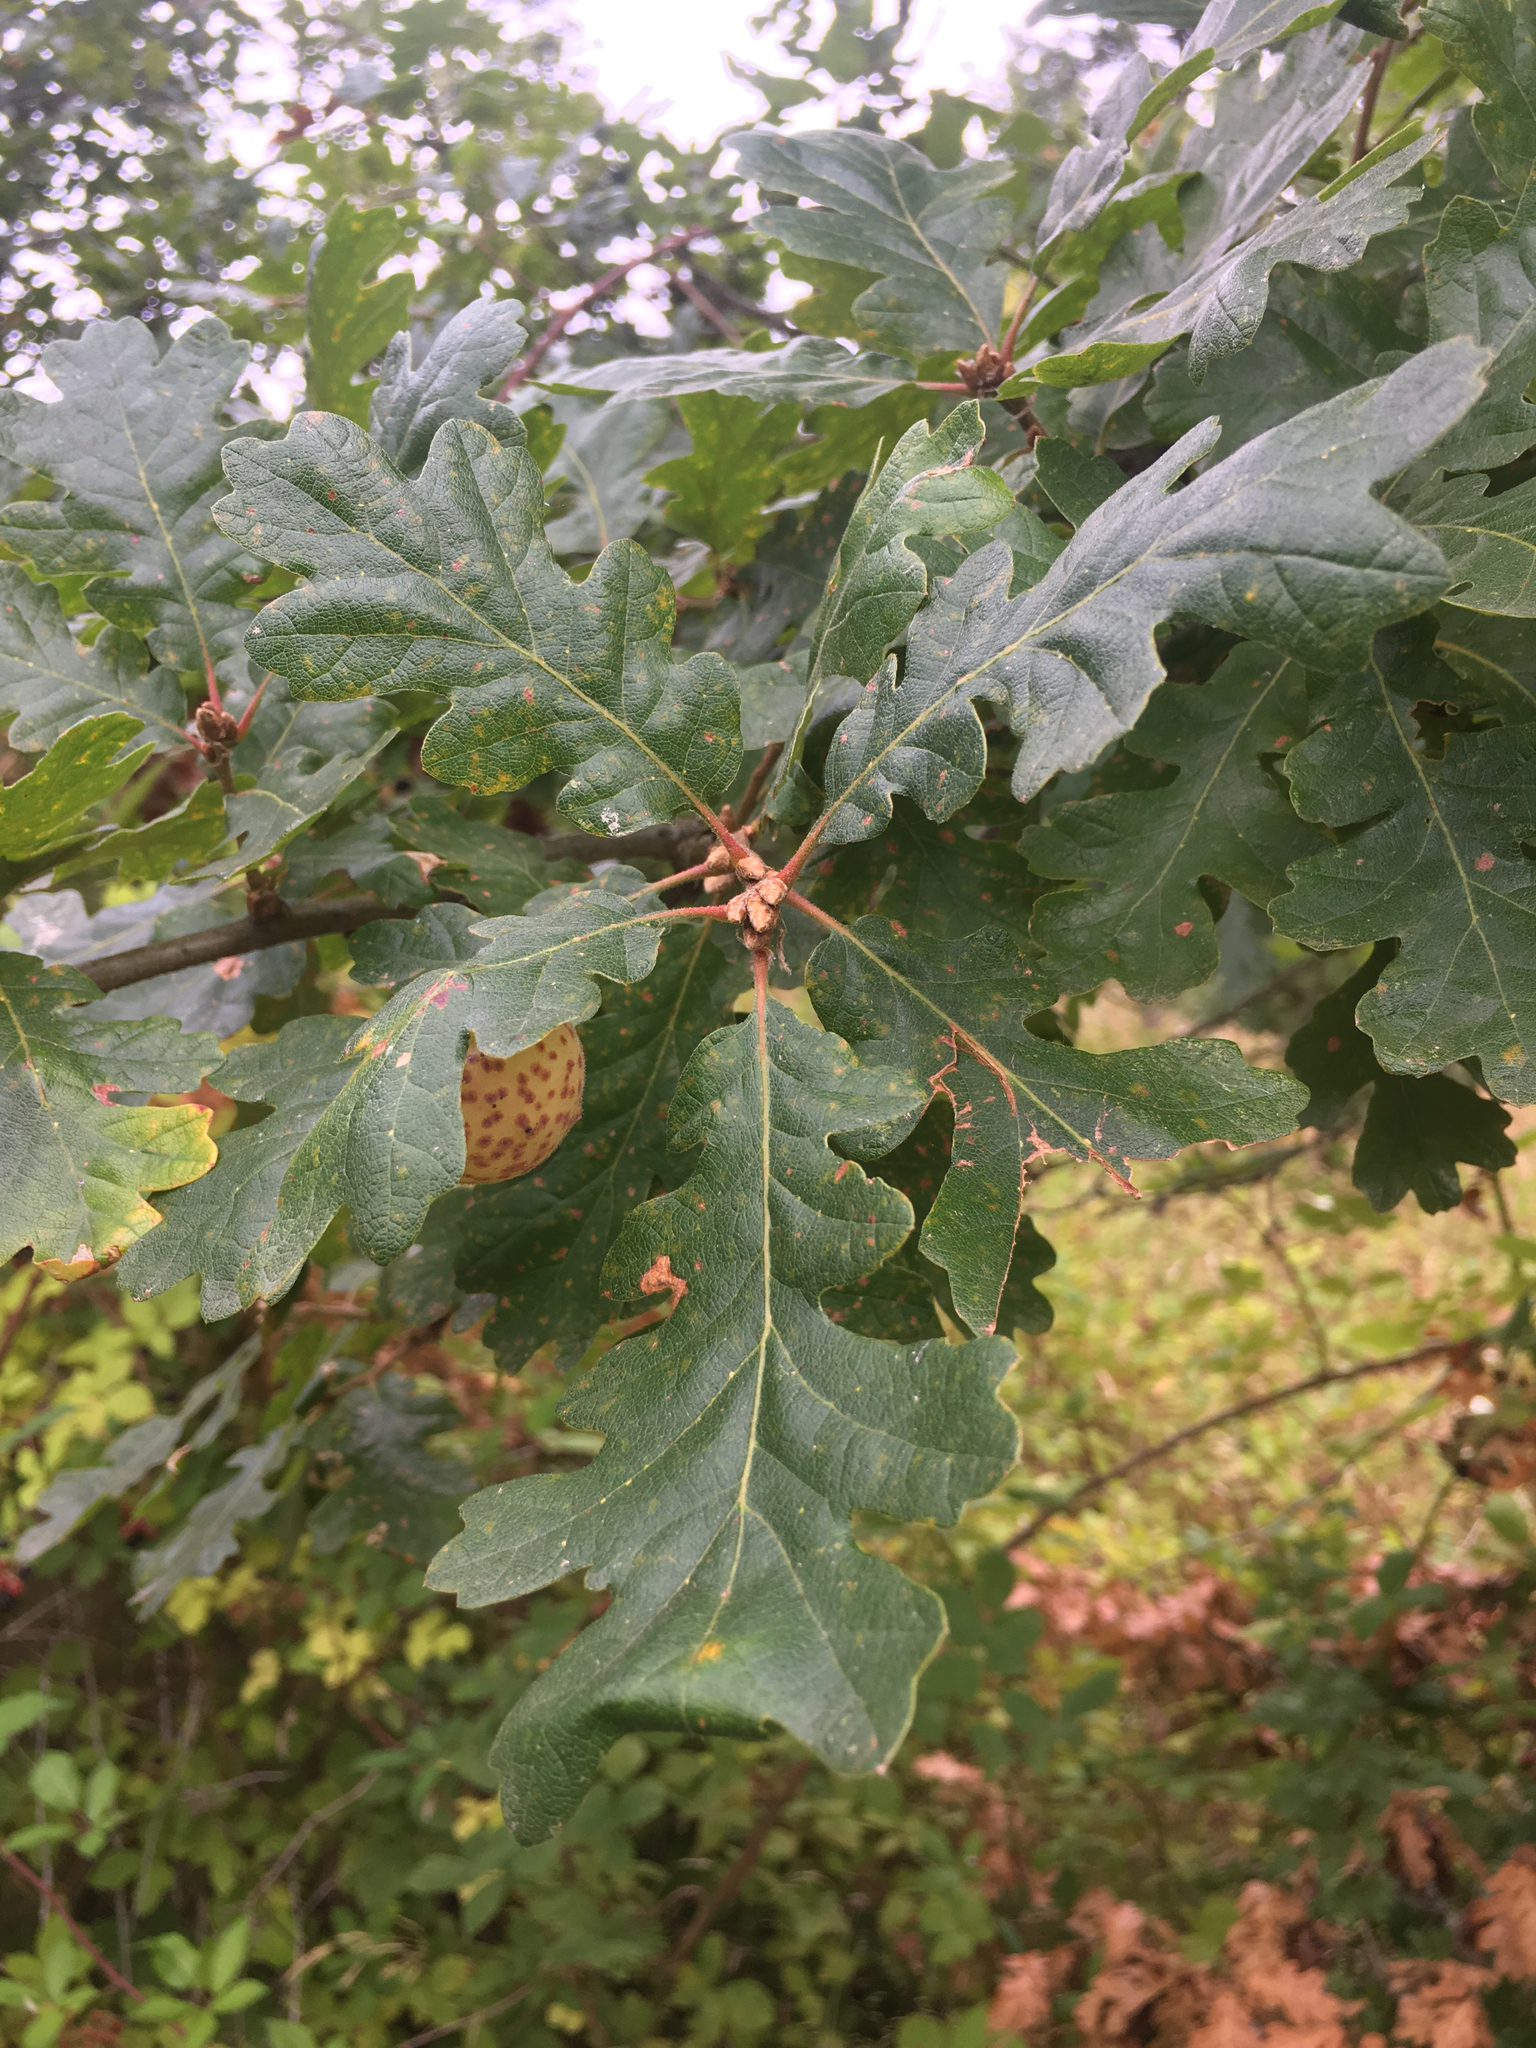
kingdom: Plantae
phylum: Tracheophyta
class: Magnoliopsida
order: Fagales
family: Fagaceae
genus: Quercus
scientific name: Quercus garryana
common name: Garry oak
